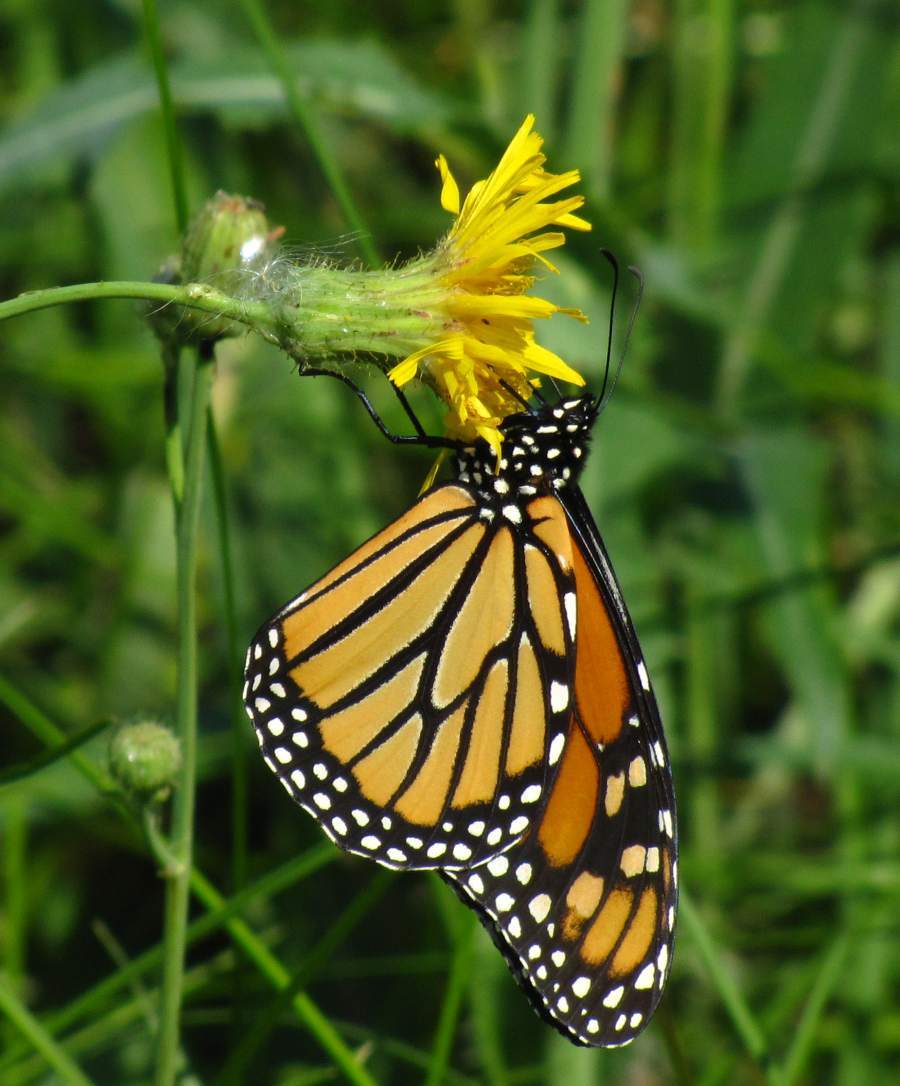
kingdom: Animalia
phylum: Arthropoda
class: Insecta
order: Lepidoptera
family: Nymphalidae
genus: Danaus
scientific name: Danaus plexippus
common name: Monarch
